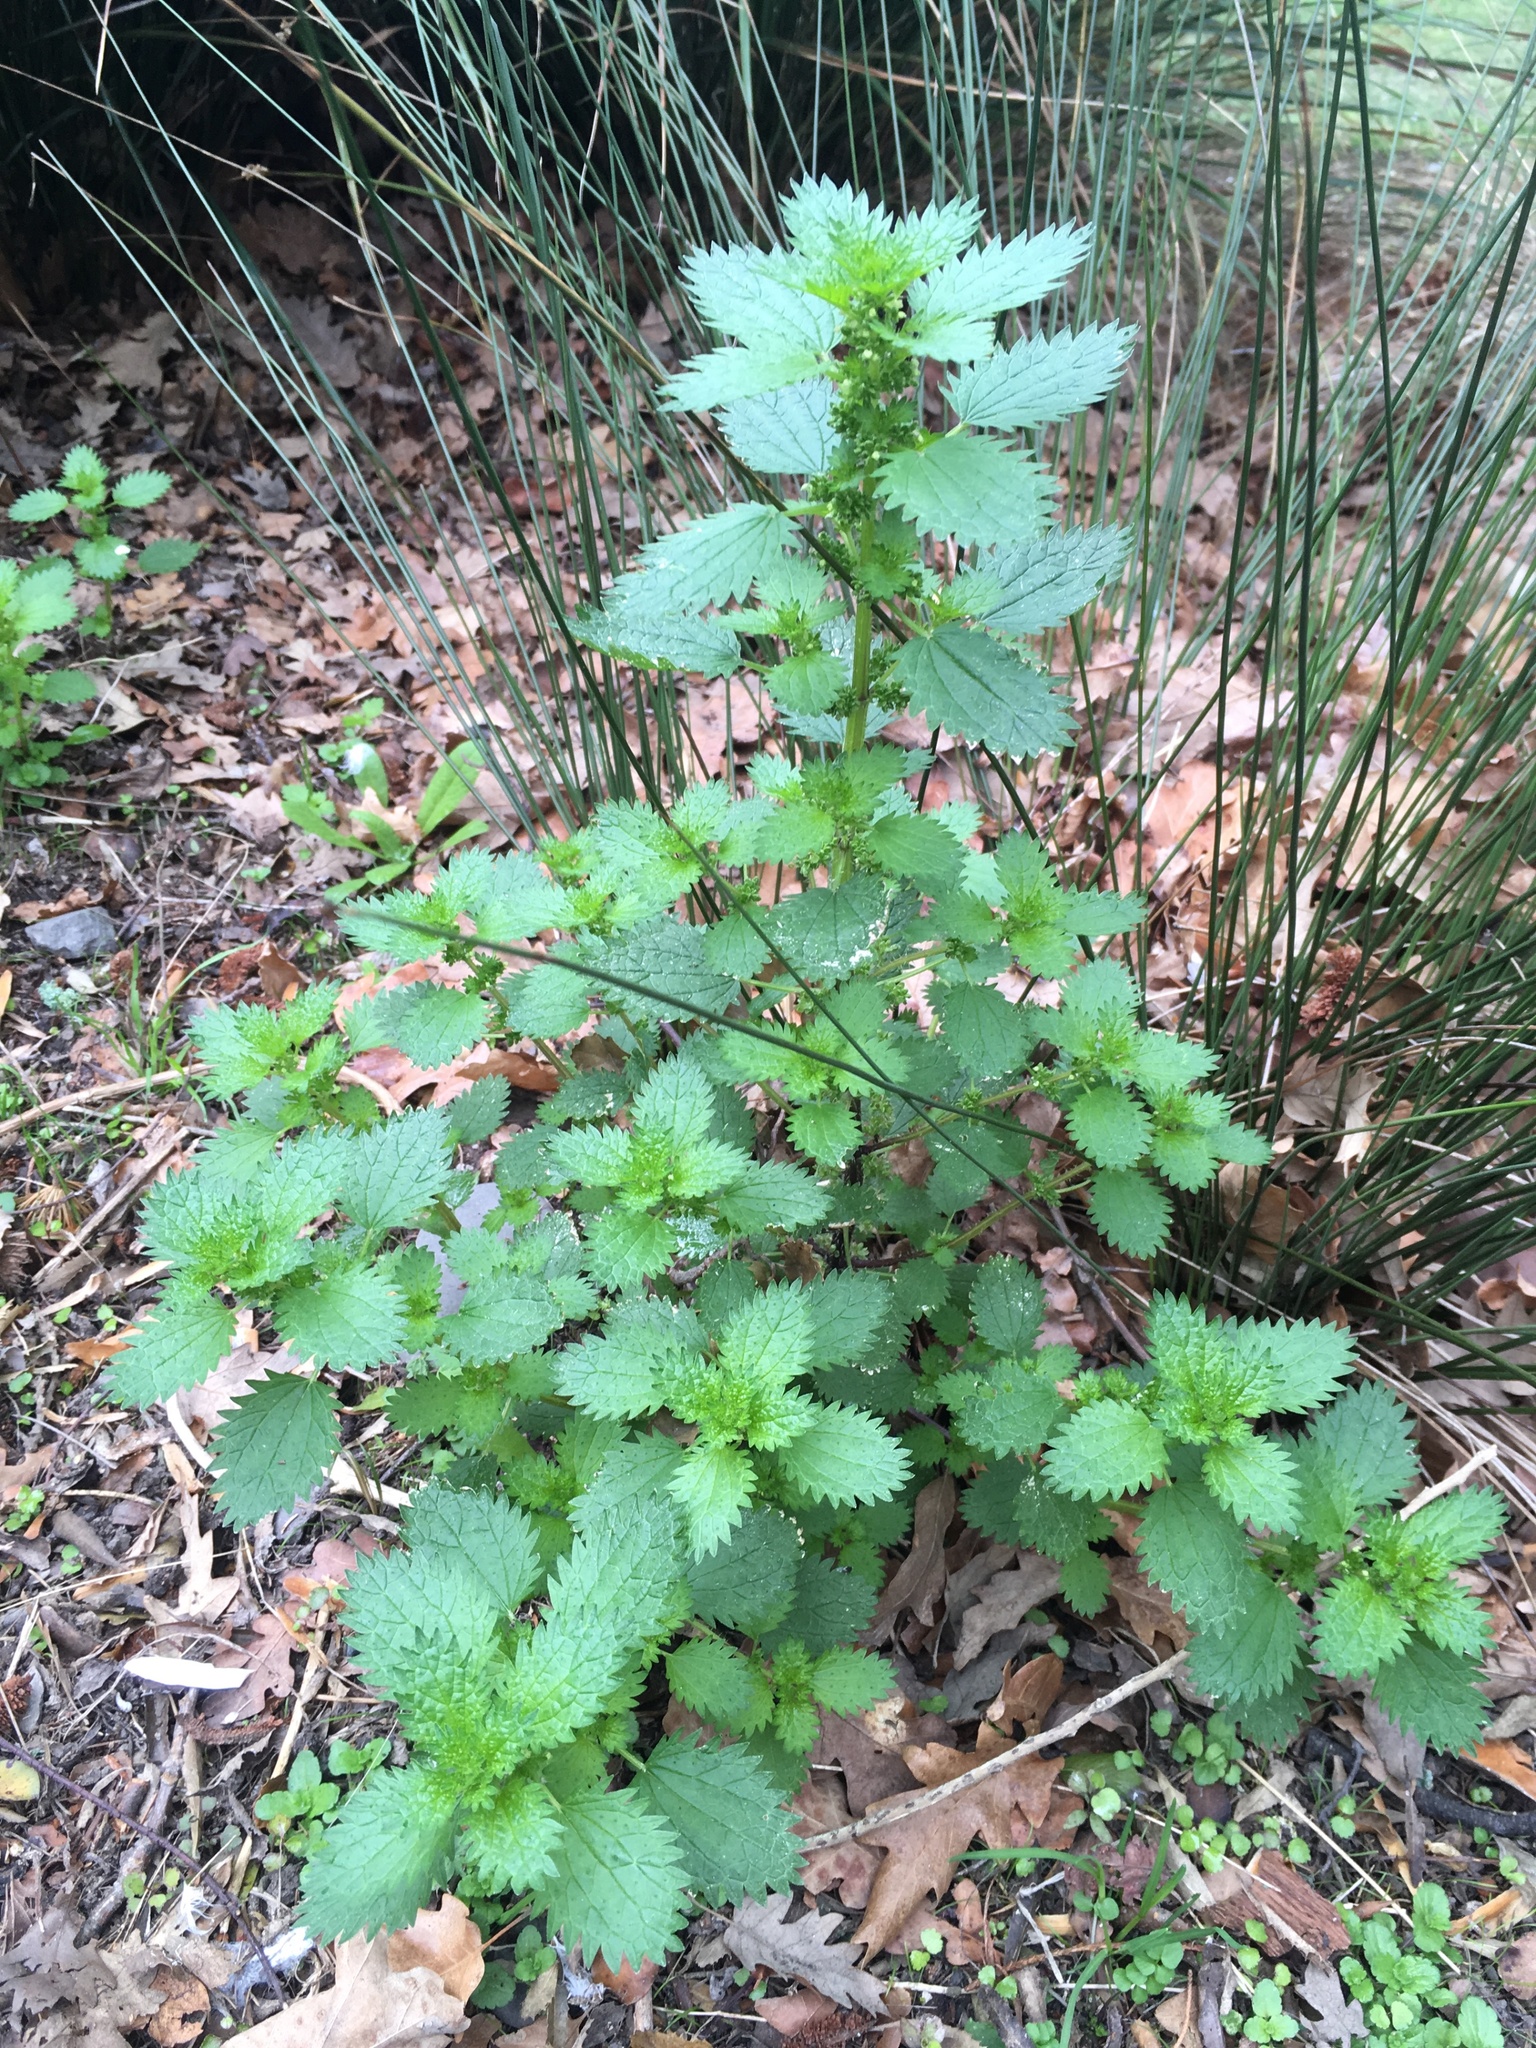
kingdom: Plantae
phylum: Tracheophyta
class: Magnoliopsida
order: Rosales
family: Urticaceae
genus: Urtica
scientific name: Urtica urens
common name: Dwarf nettle
